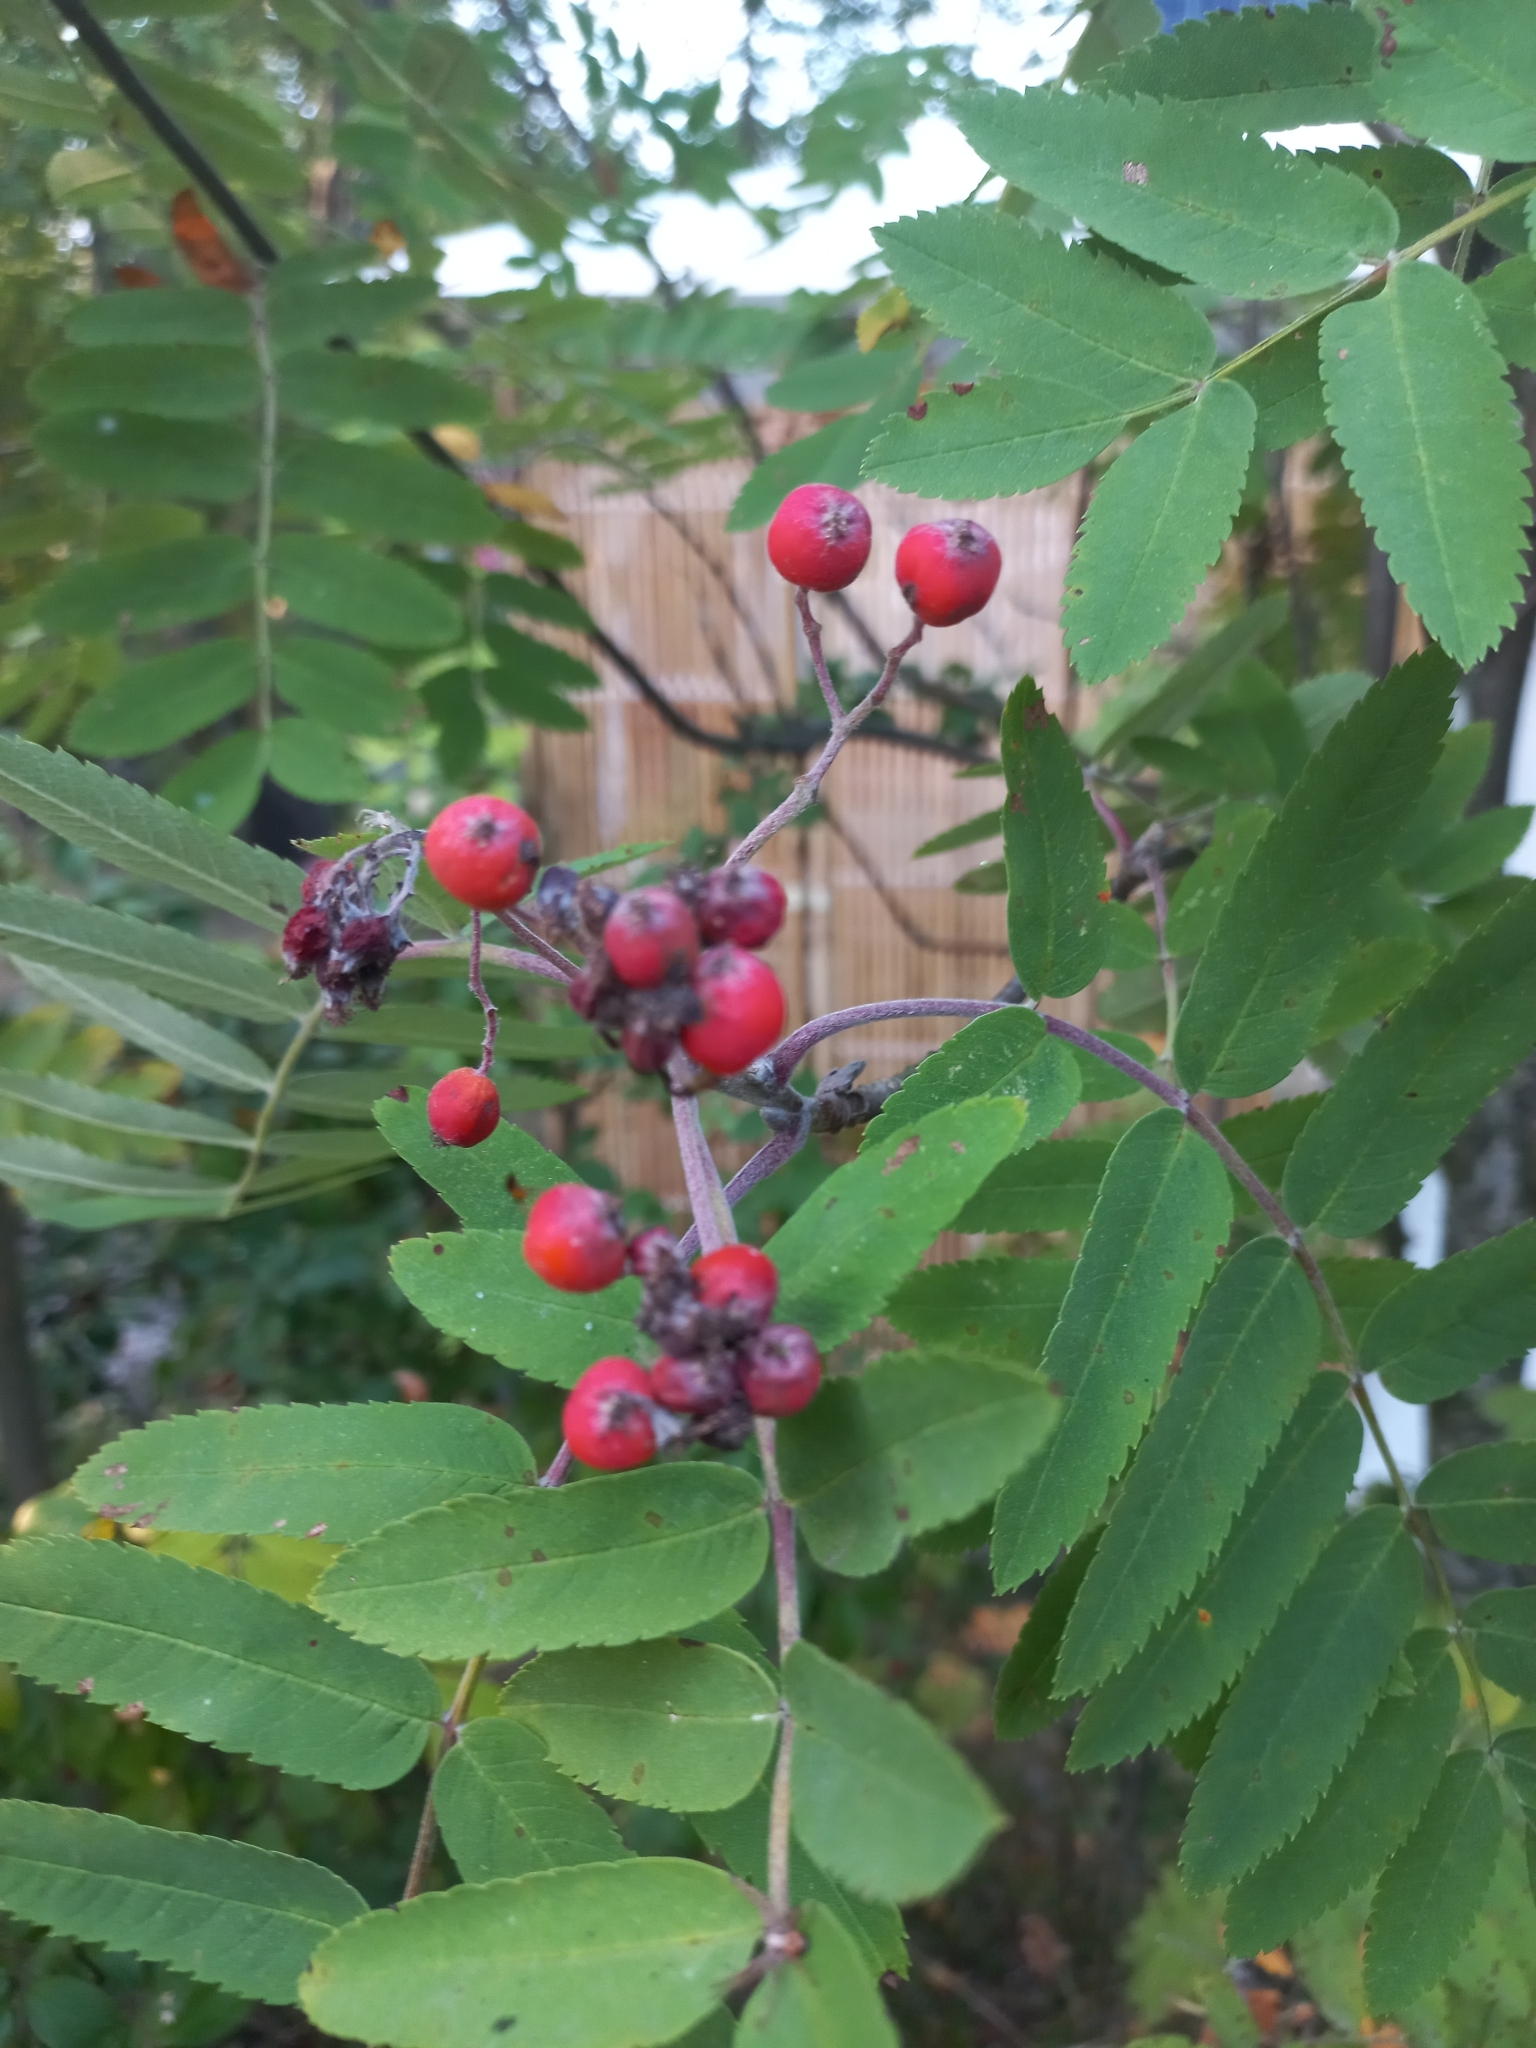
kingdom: Plantae
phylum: Tracheophyta
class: Magnoliopsida
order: Rosales
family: Rosaceae
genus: Sorbus
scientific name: Sorbus aucuparia
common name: Rowan
